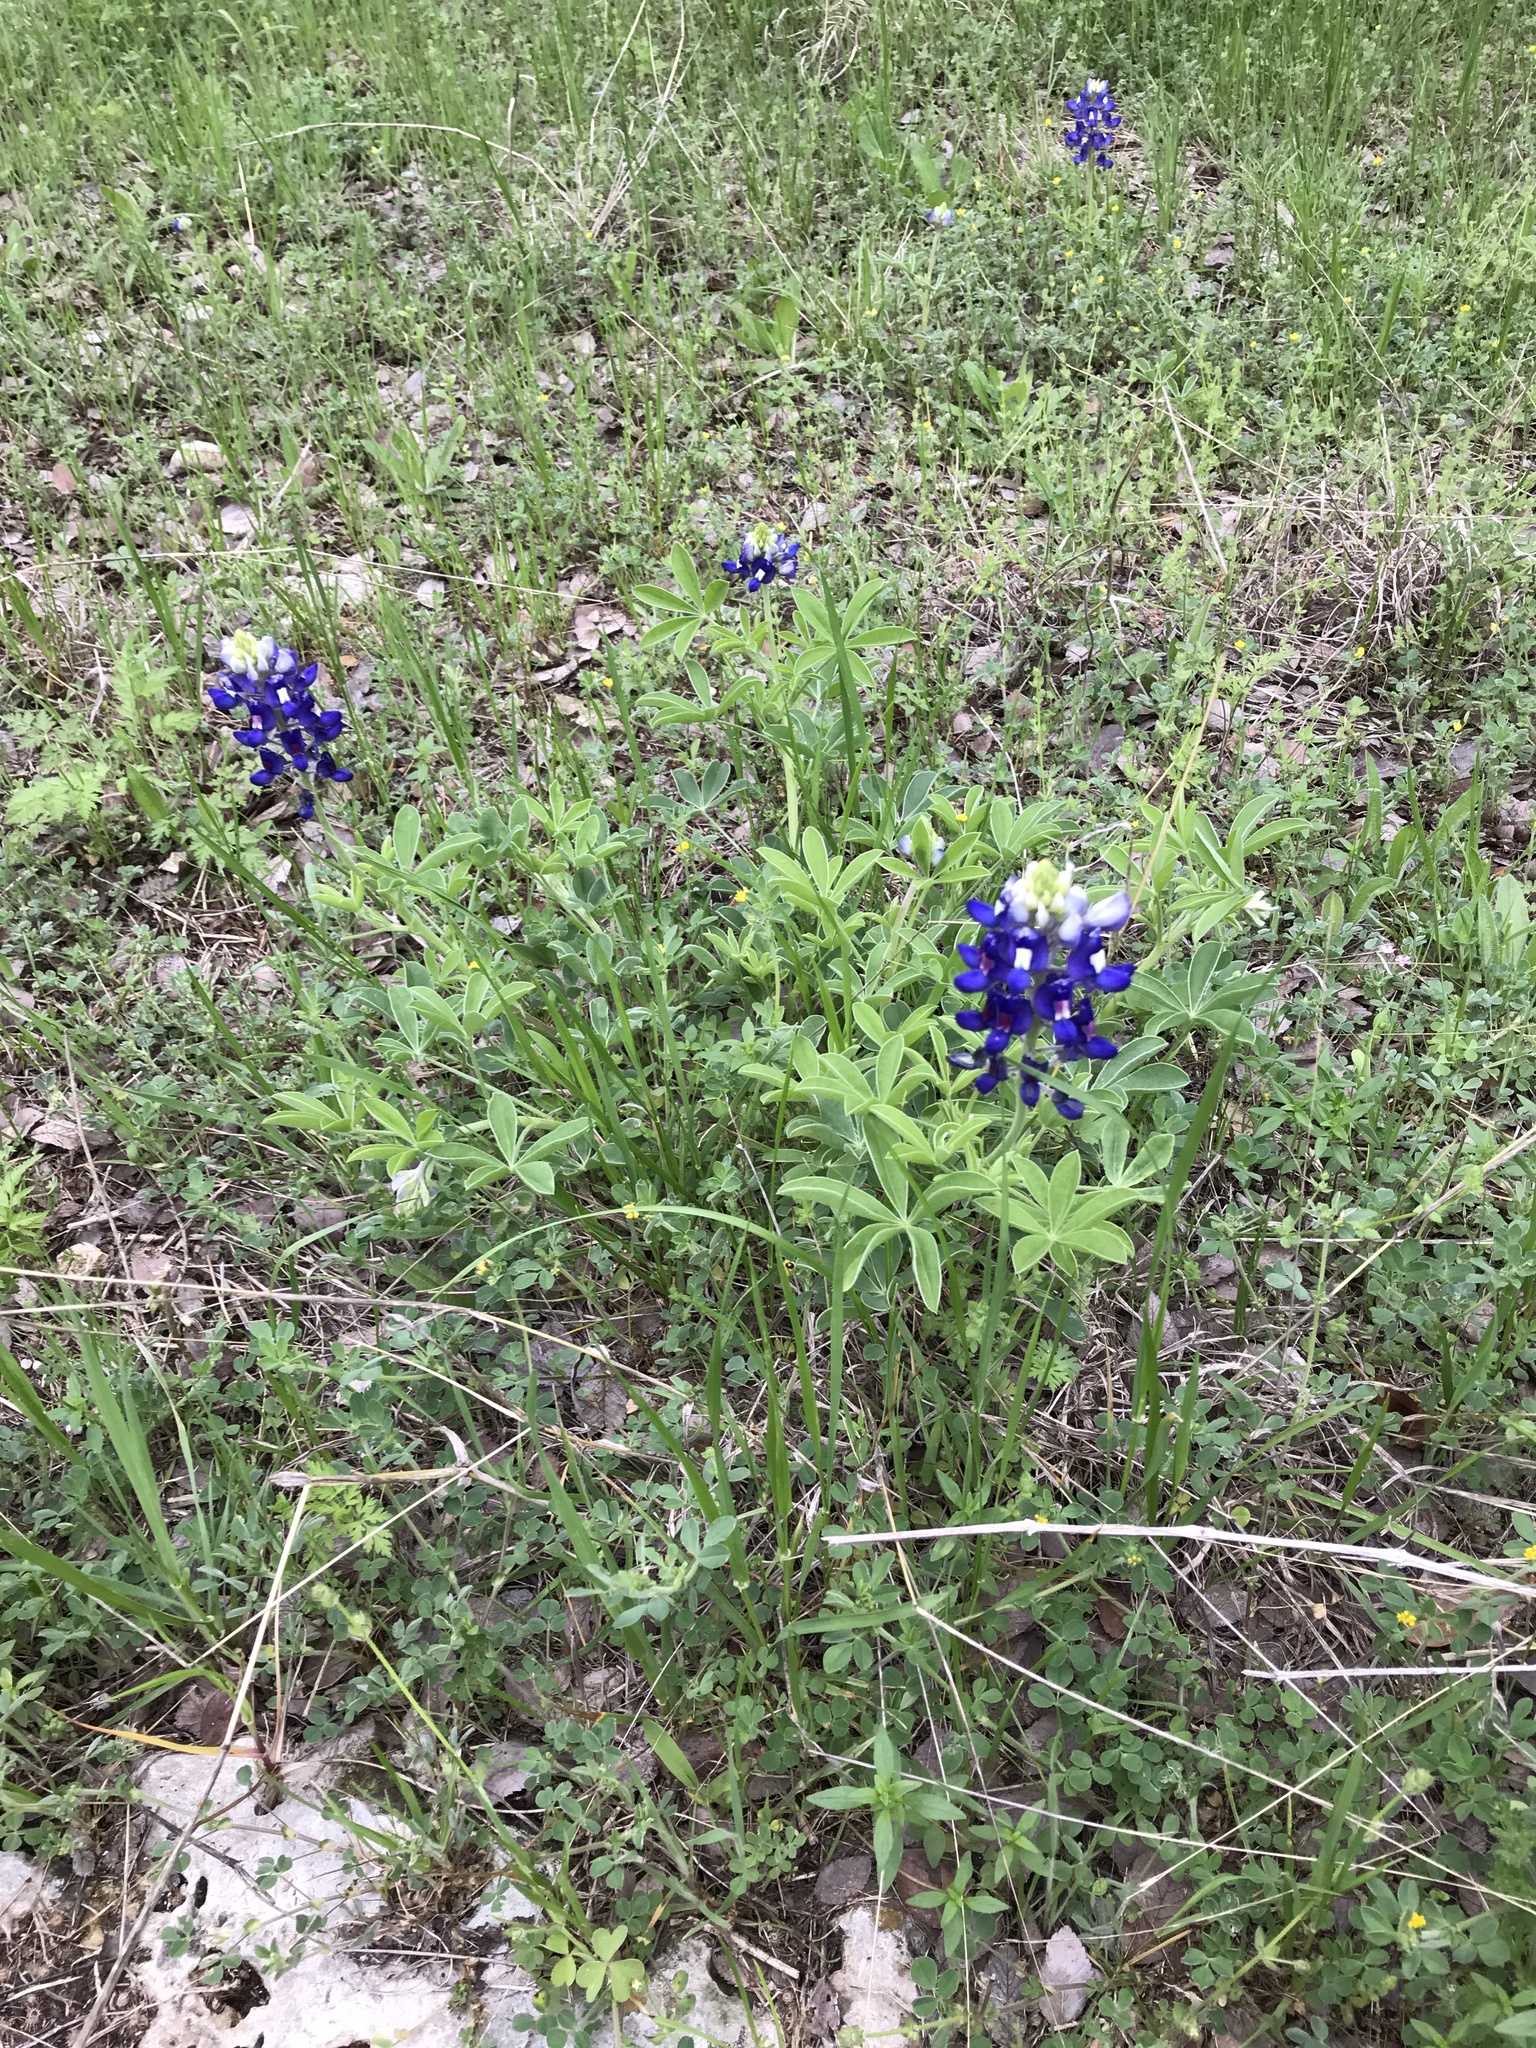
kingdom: Plantae
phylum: Tracheophyta
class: Magnoliopsida
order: Fabales
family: Fabaceae
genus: Lupinus
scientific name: Lupinus texensis
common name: Texas bluebonnet
